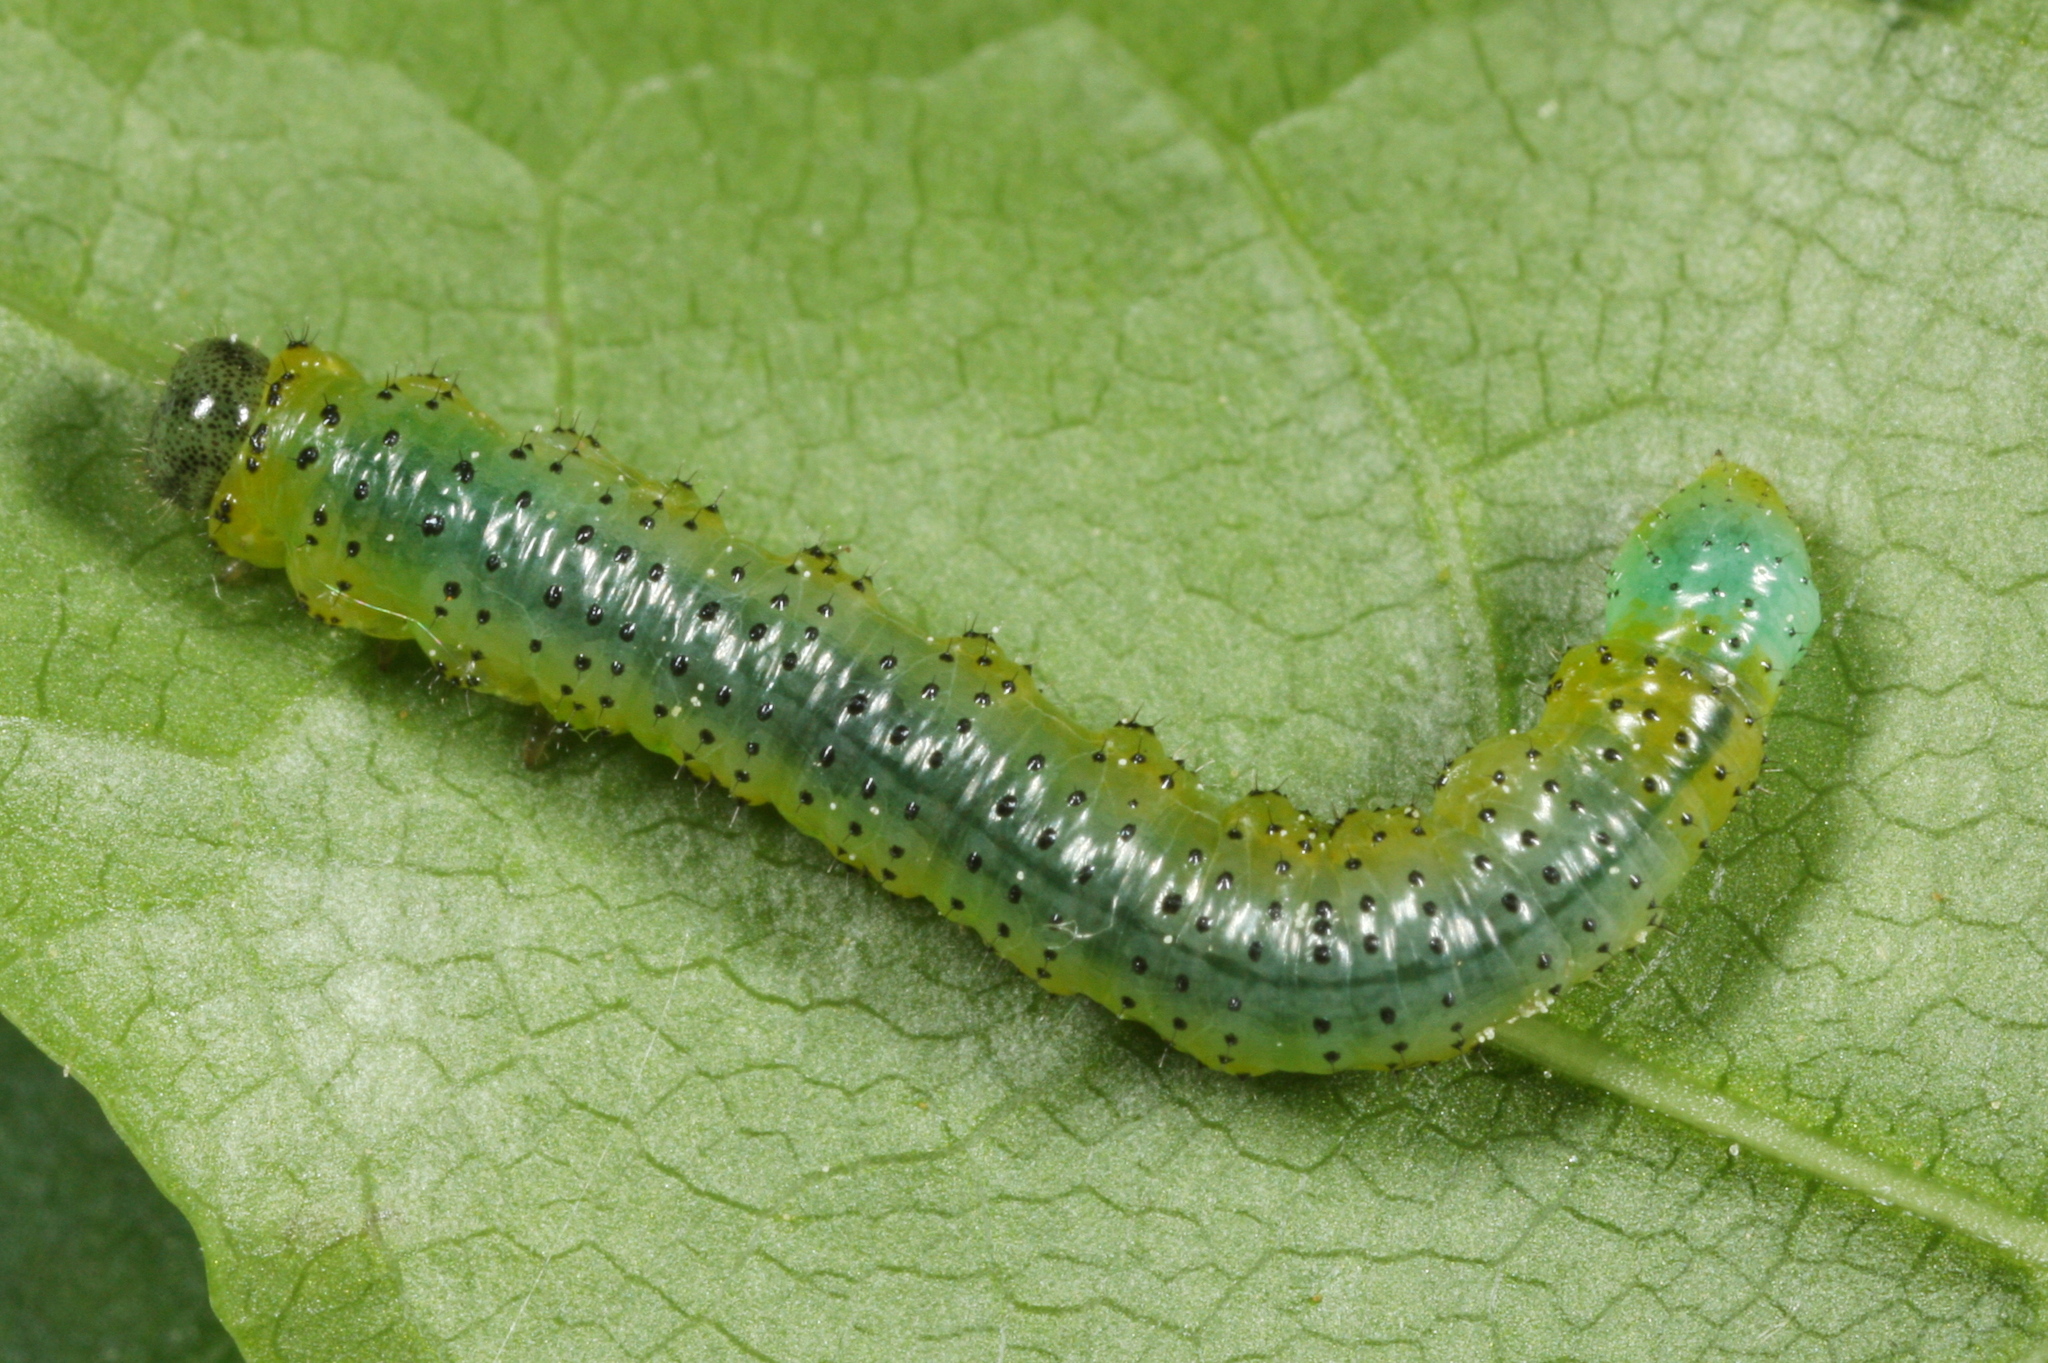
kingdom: Animalia
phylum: Arthropoda
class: Insecta
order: Hymenoptera
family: Tenthredinidae
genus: Euura
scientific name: Euura olfaciens
